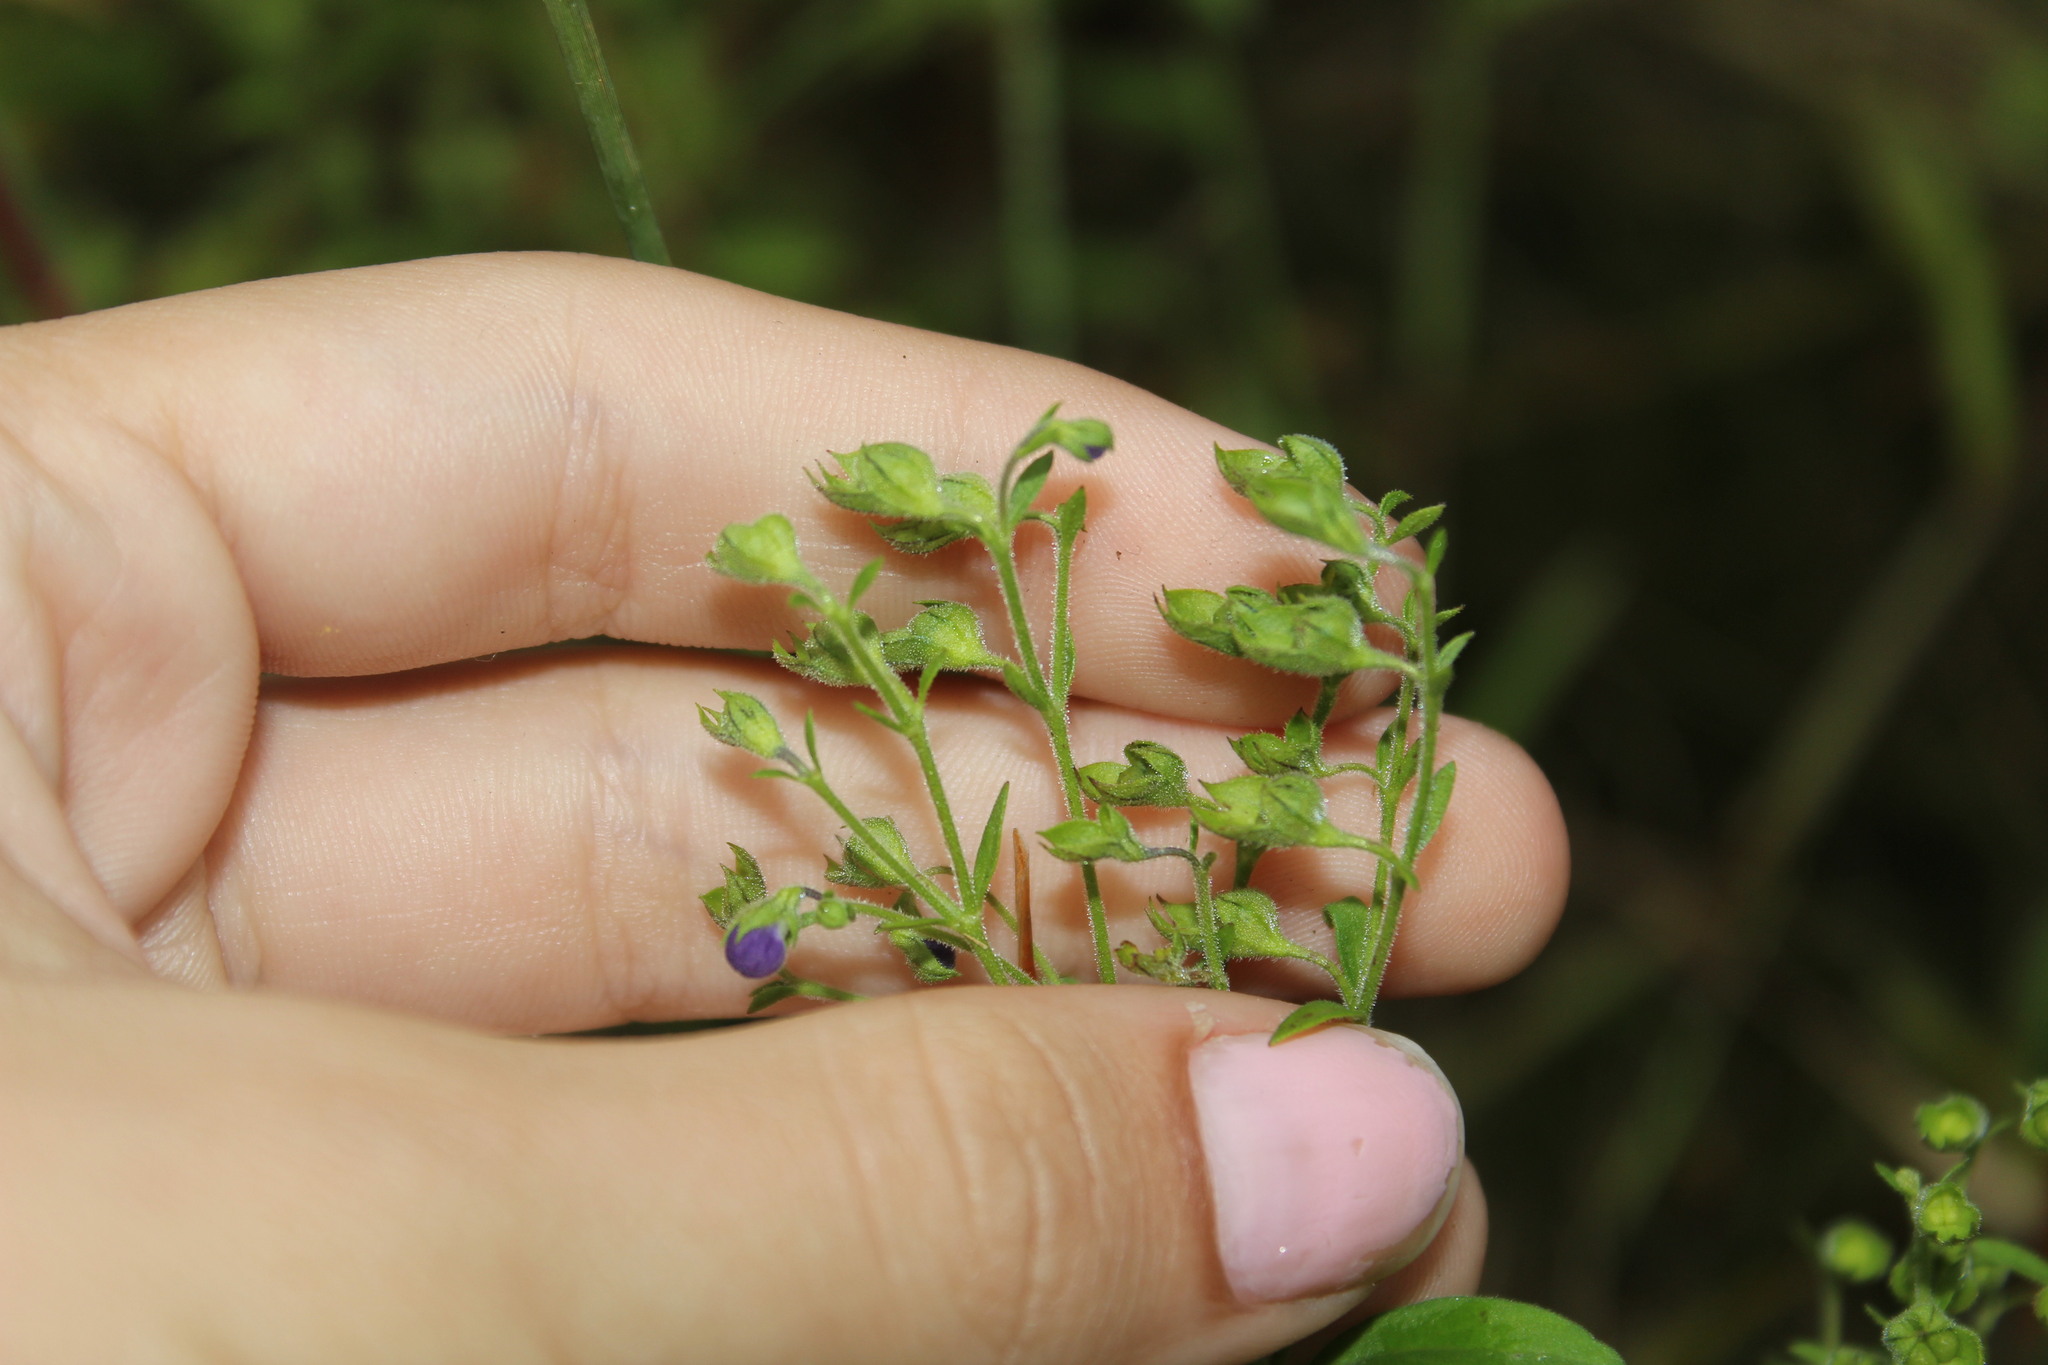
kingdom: Plantae
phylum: Tracheophyta
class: Magnoliopsida
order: Lamiales
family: Lamiaceae
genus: Trichostema
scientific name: Trichostema dichotomum
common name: Bastard pennyroyal
